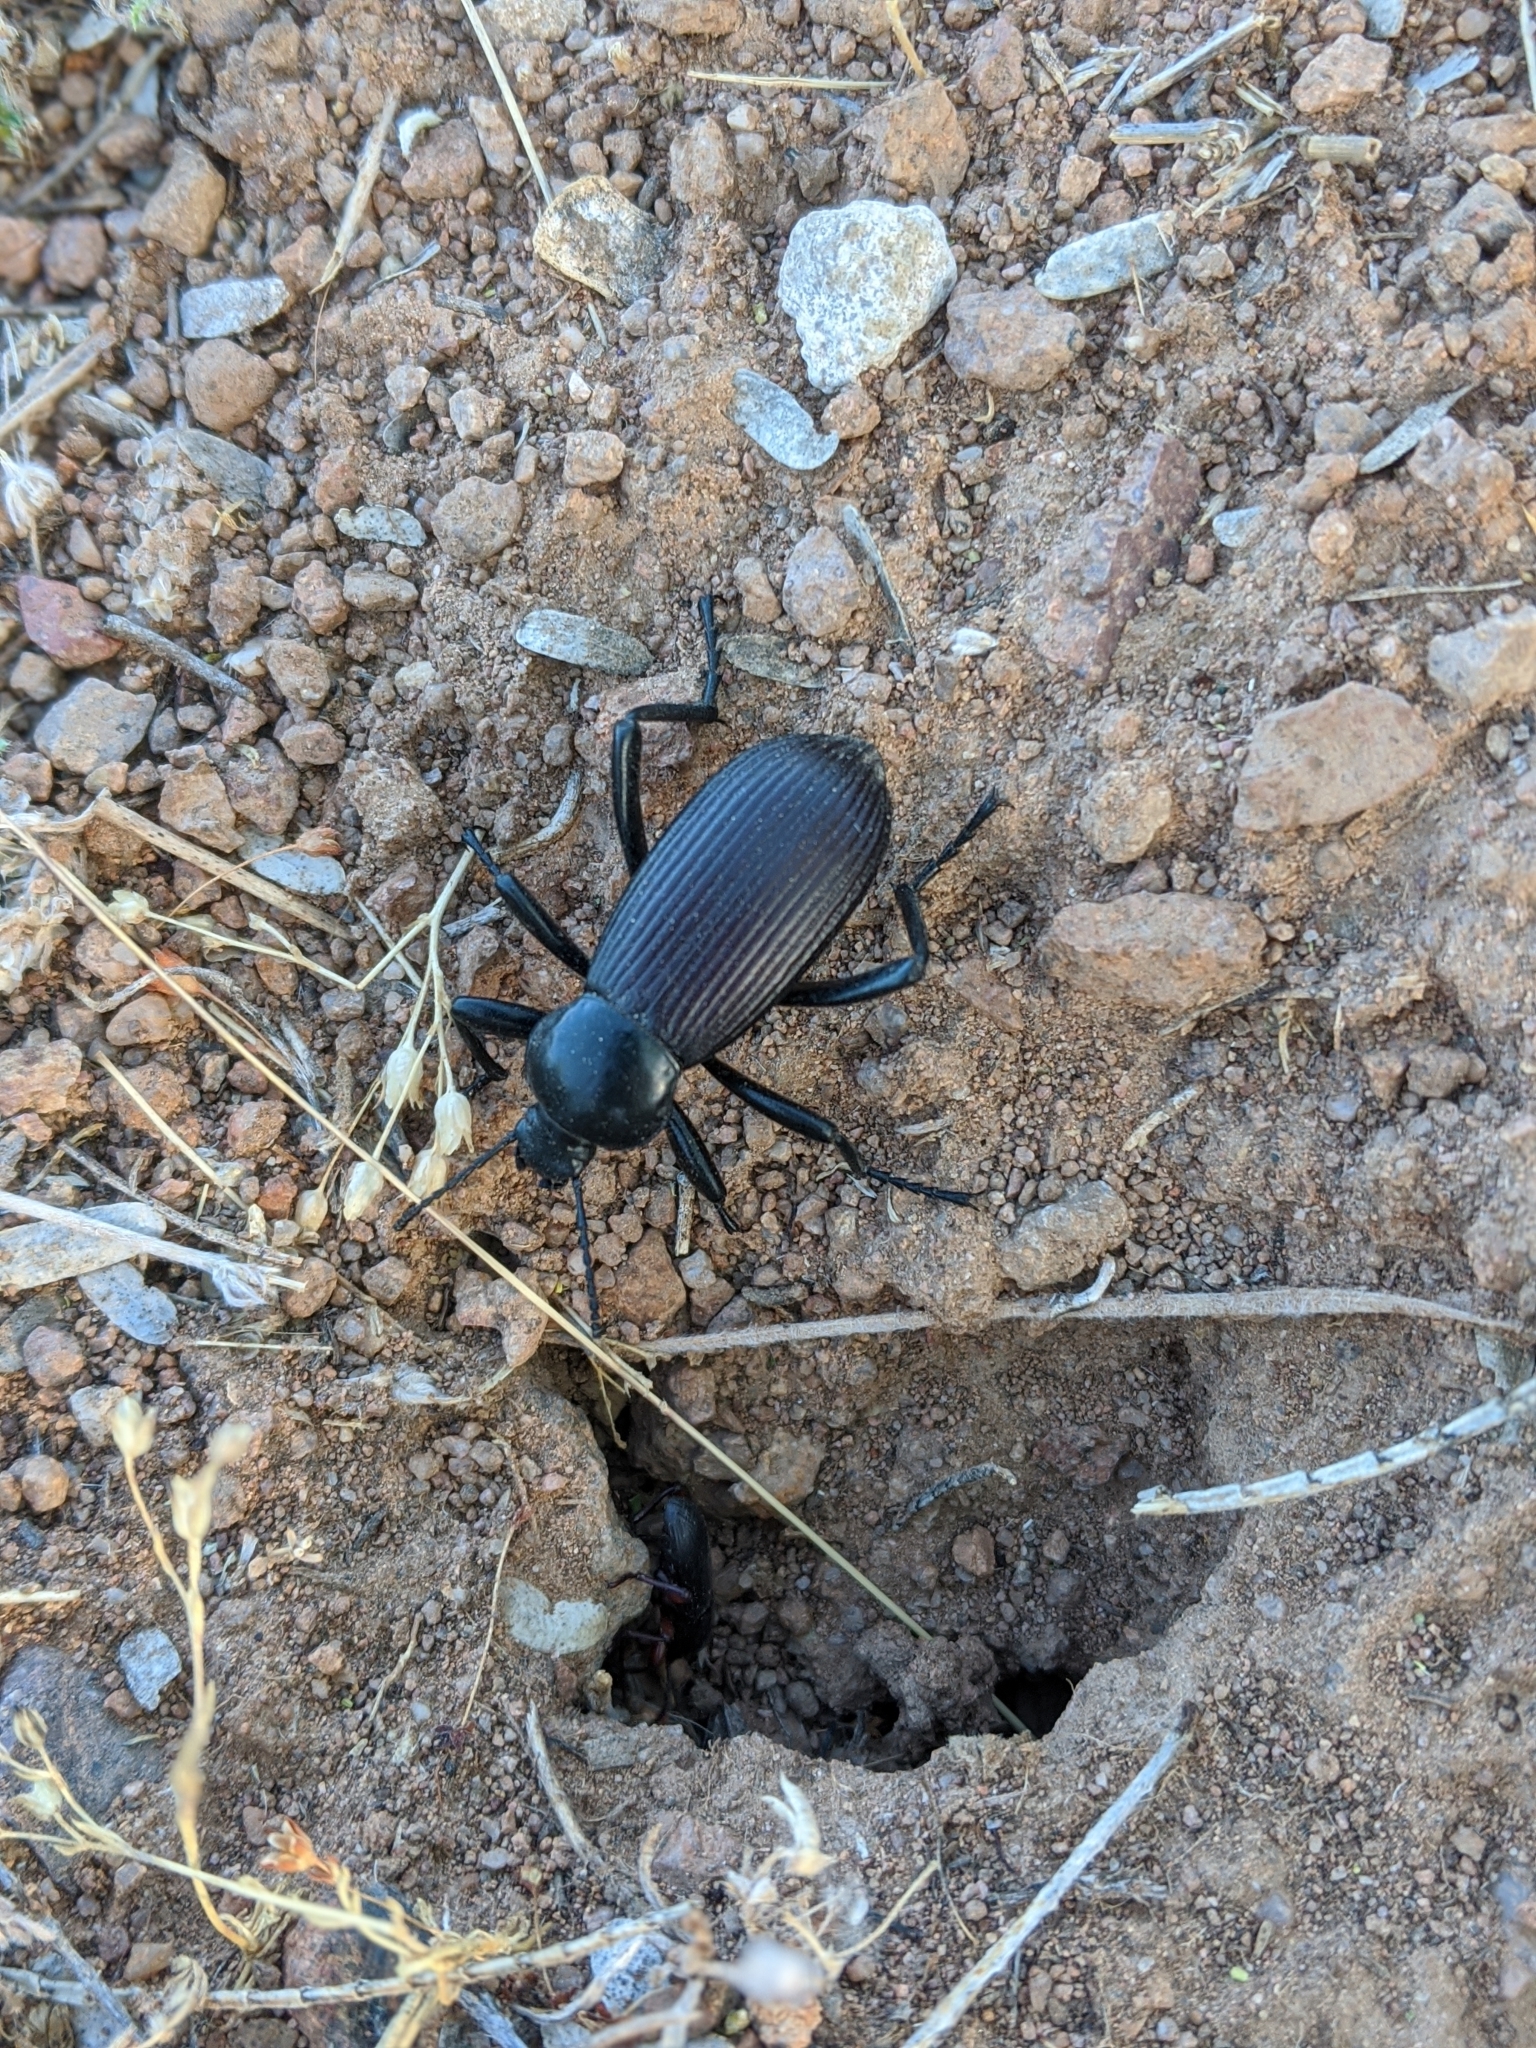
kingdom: Animalia
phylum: Arthropoda
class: Insecta
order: Coleoptera
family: Tenebrionidae
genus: Eleodes
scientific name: Eleodes obscura
